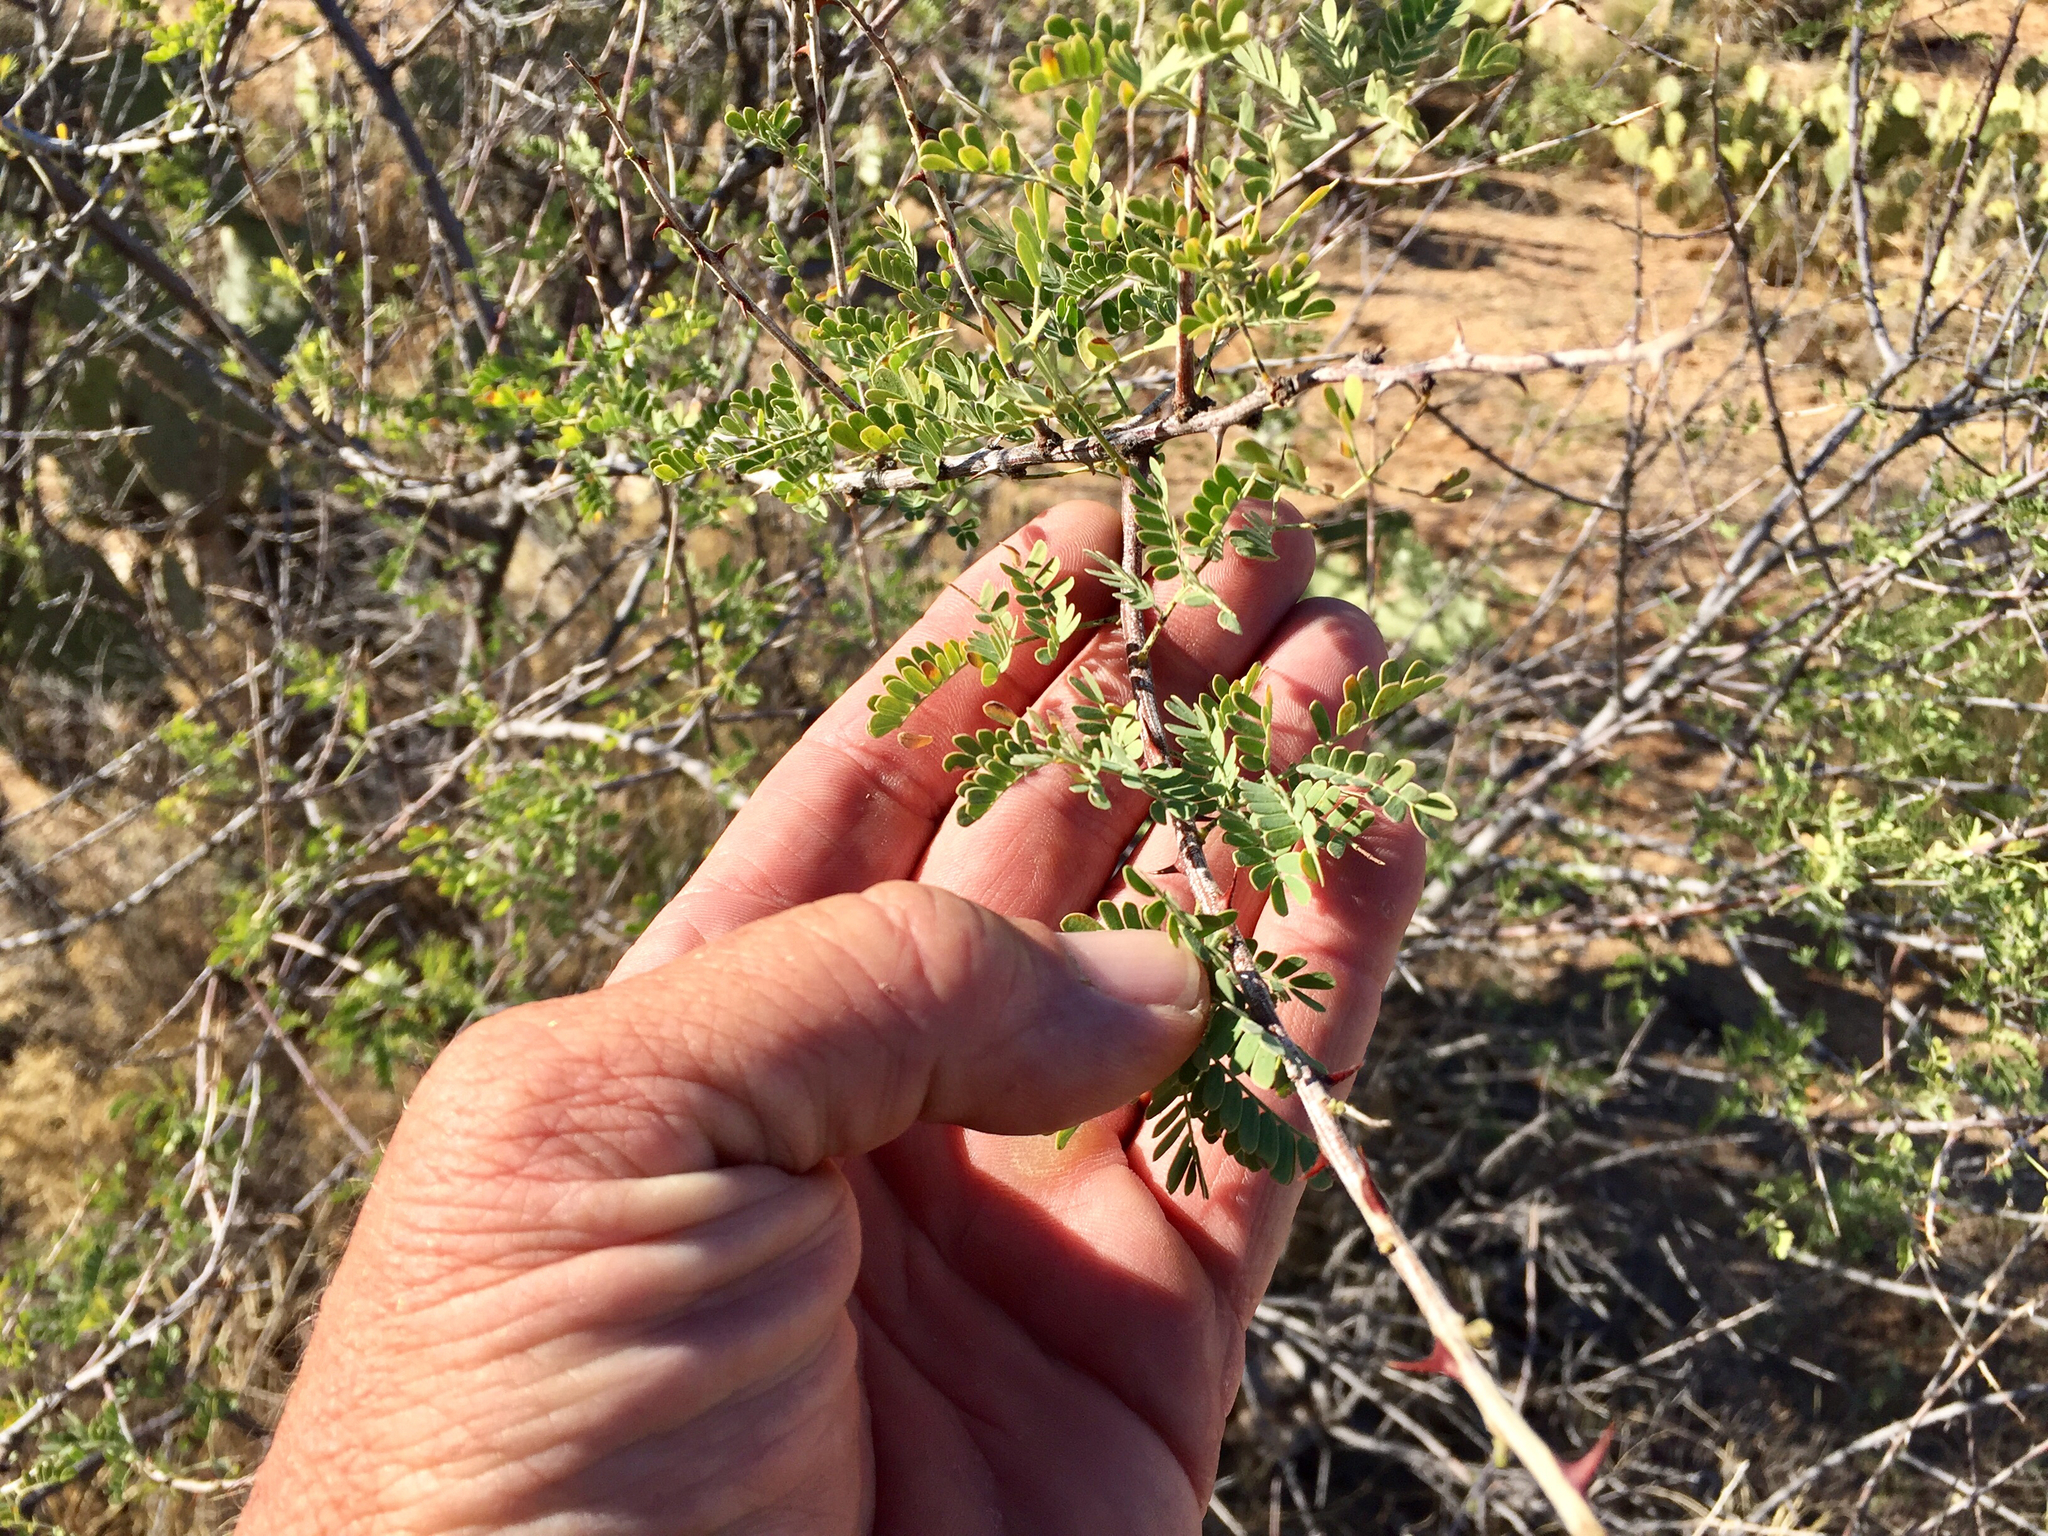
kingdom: Plantae
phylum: Tracheophyta
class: Magnoliopsida
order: Fabales
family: Fabaceae
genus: Senegalia
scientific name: Senegalia greggii
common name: Texas-mimosa
